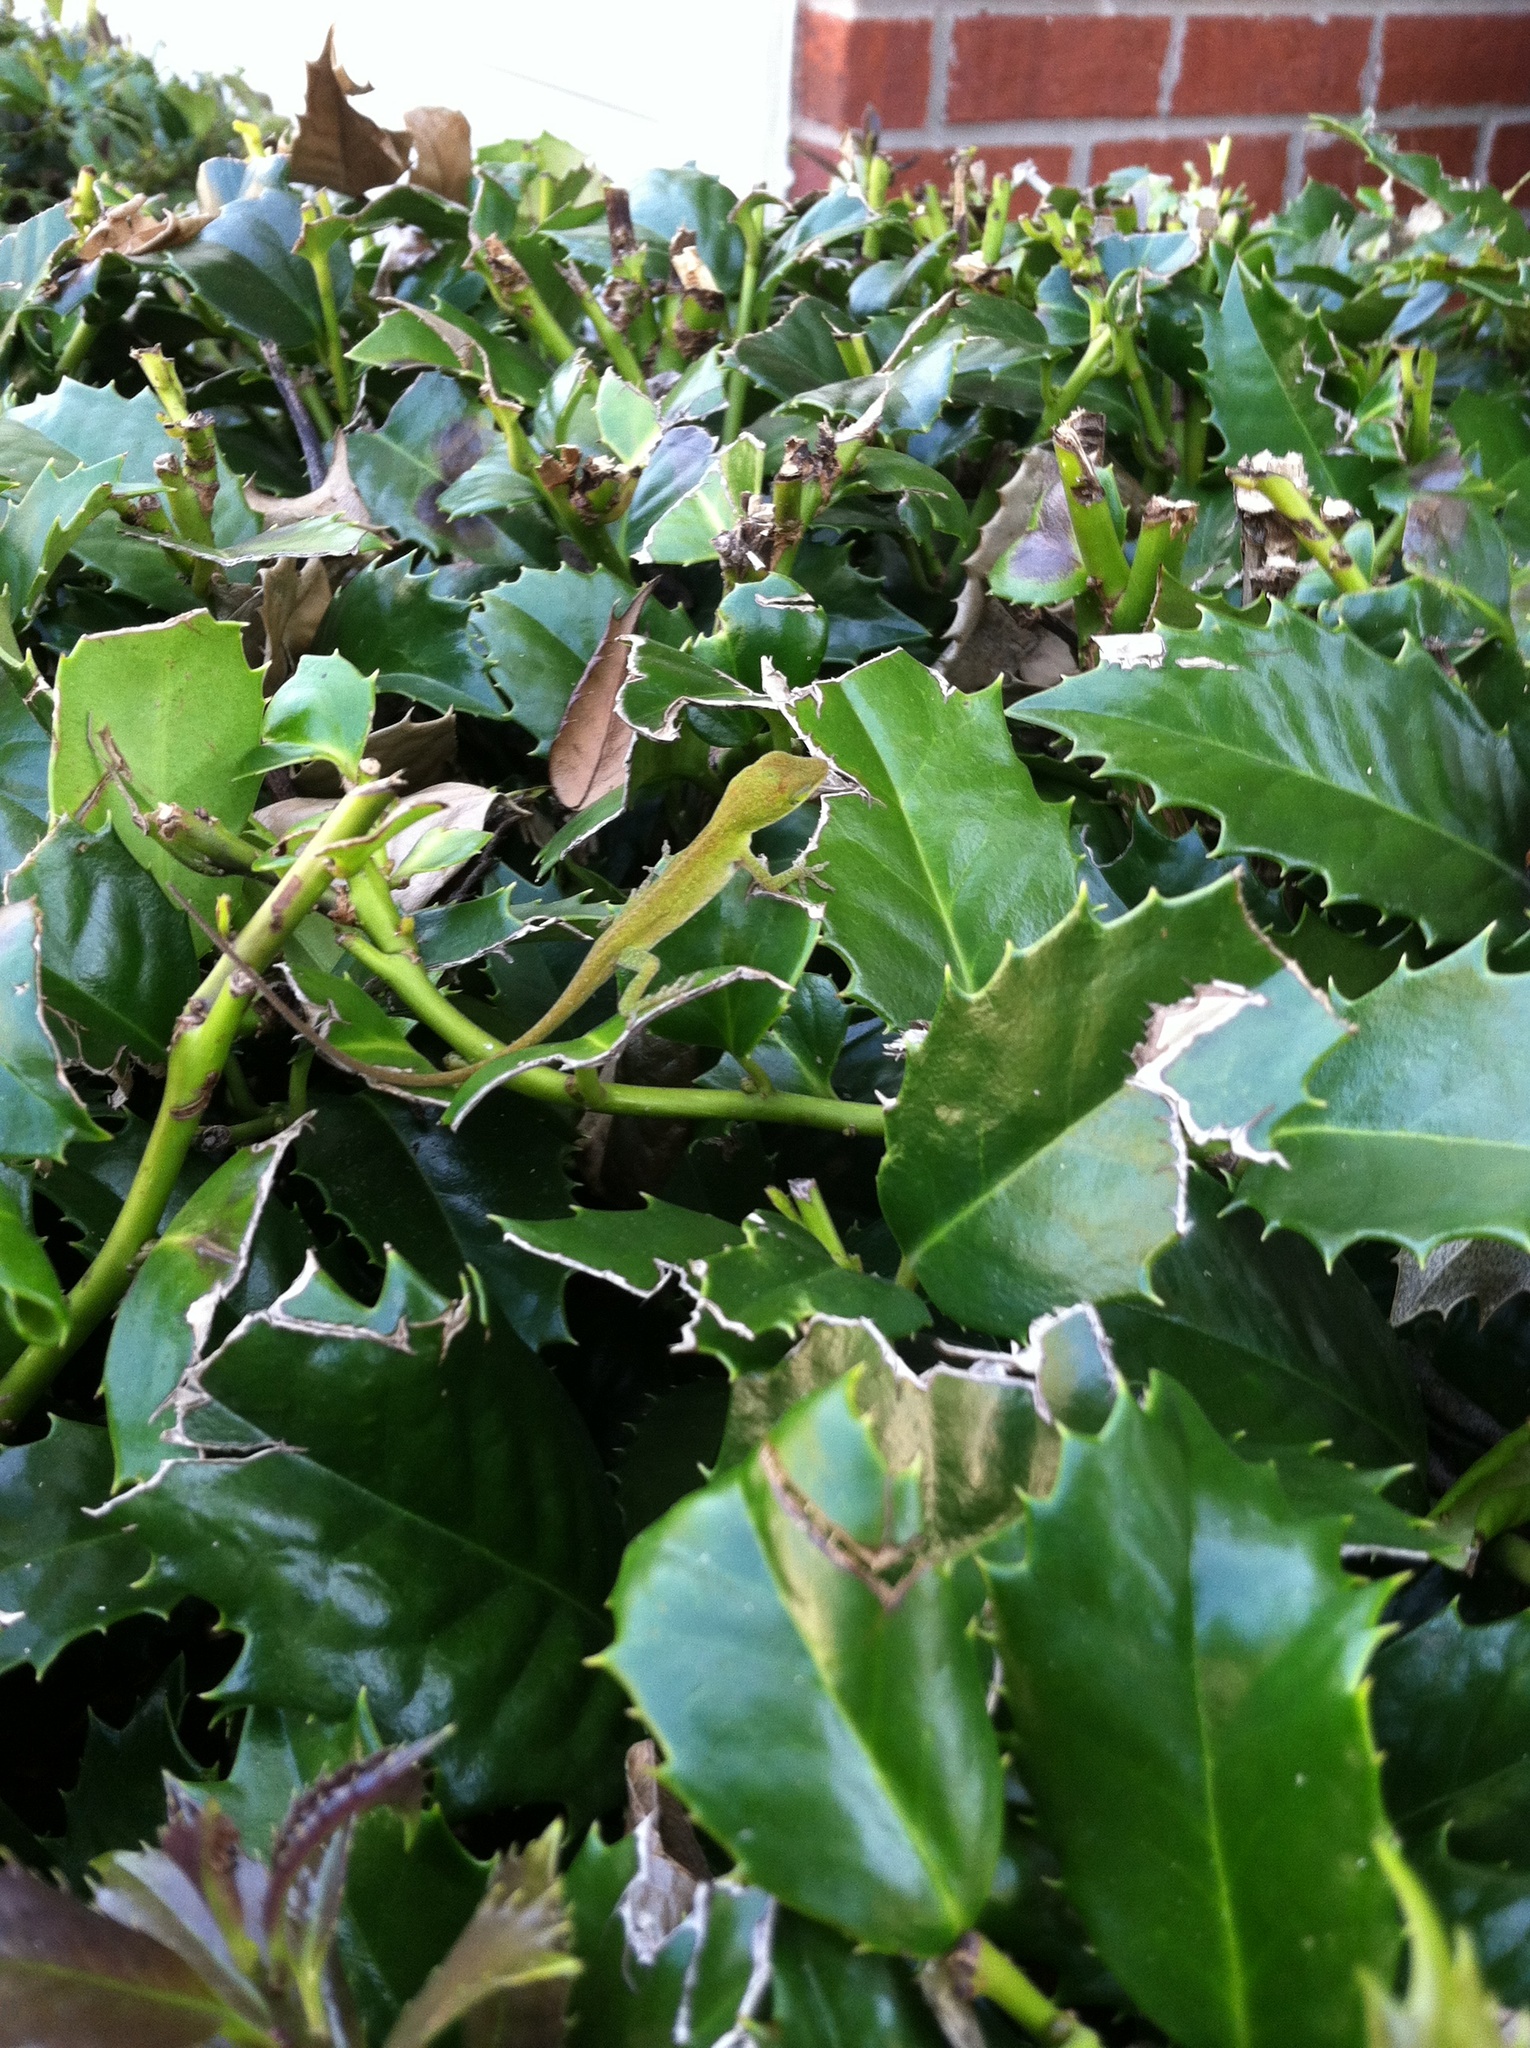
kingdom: Animalia
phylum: Chordata
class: Squamata
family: Dactyloidae
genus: Anolis
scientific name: Anolis carolinensis
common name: Green anole
